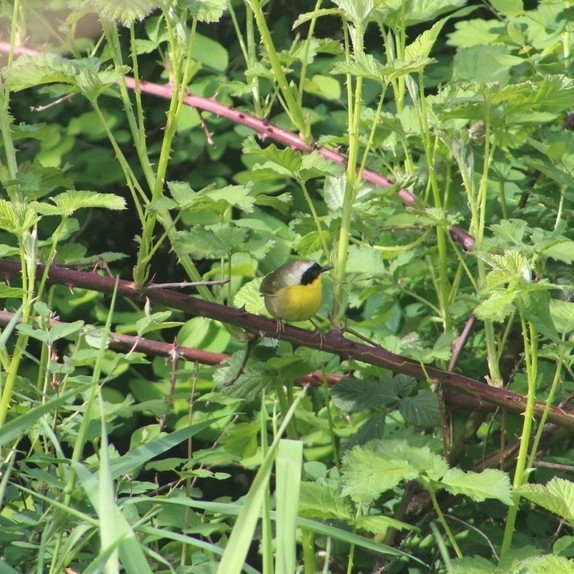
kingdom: Animalia
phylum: Chordata
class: Aves
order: Passeriformes
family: Parulidae
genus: Geothlypis
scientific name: Geothlypis trichas
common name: Common yellowthroat
